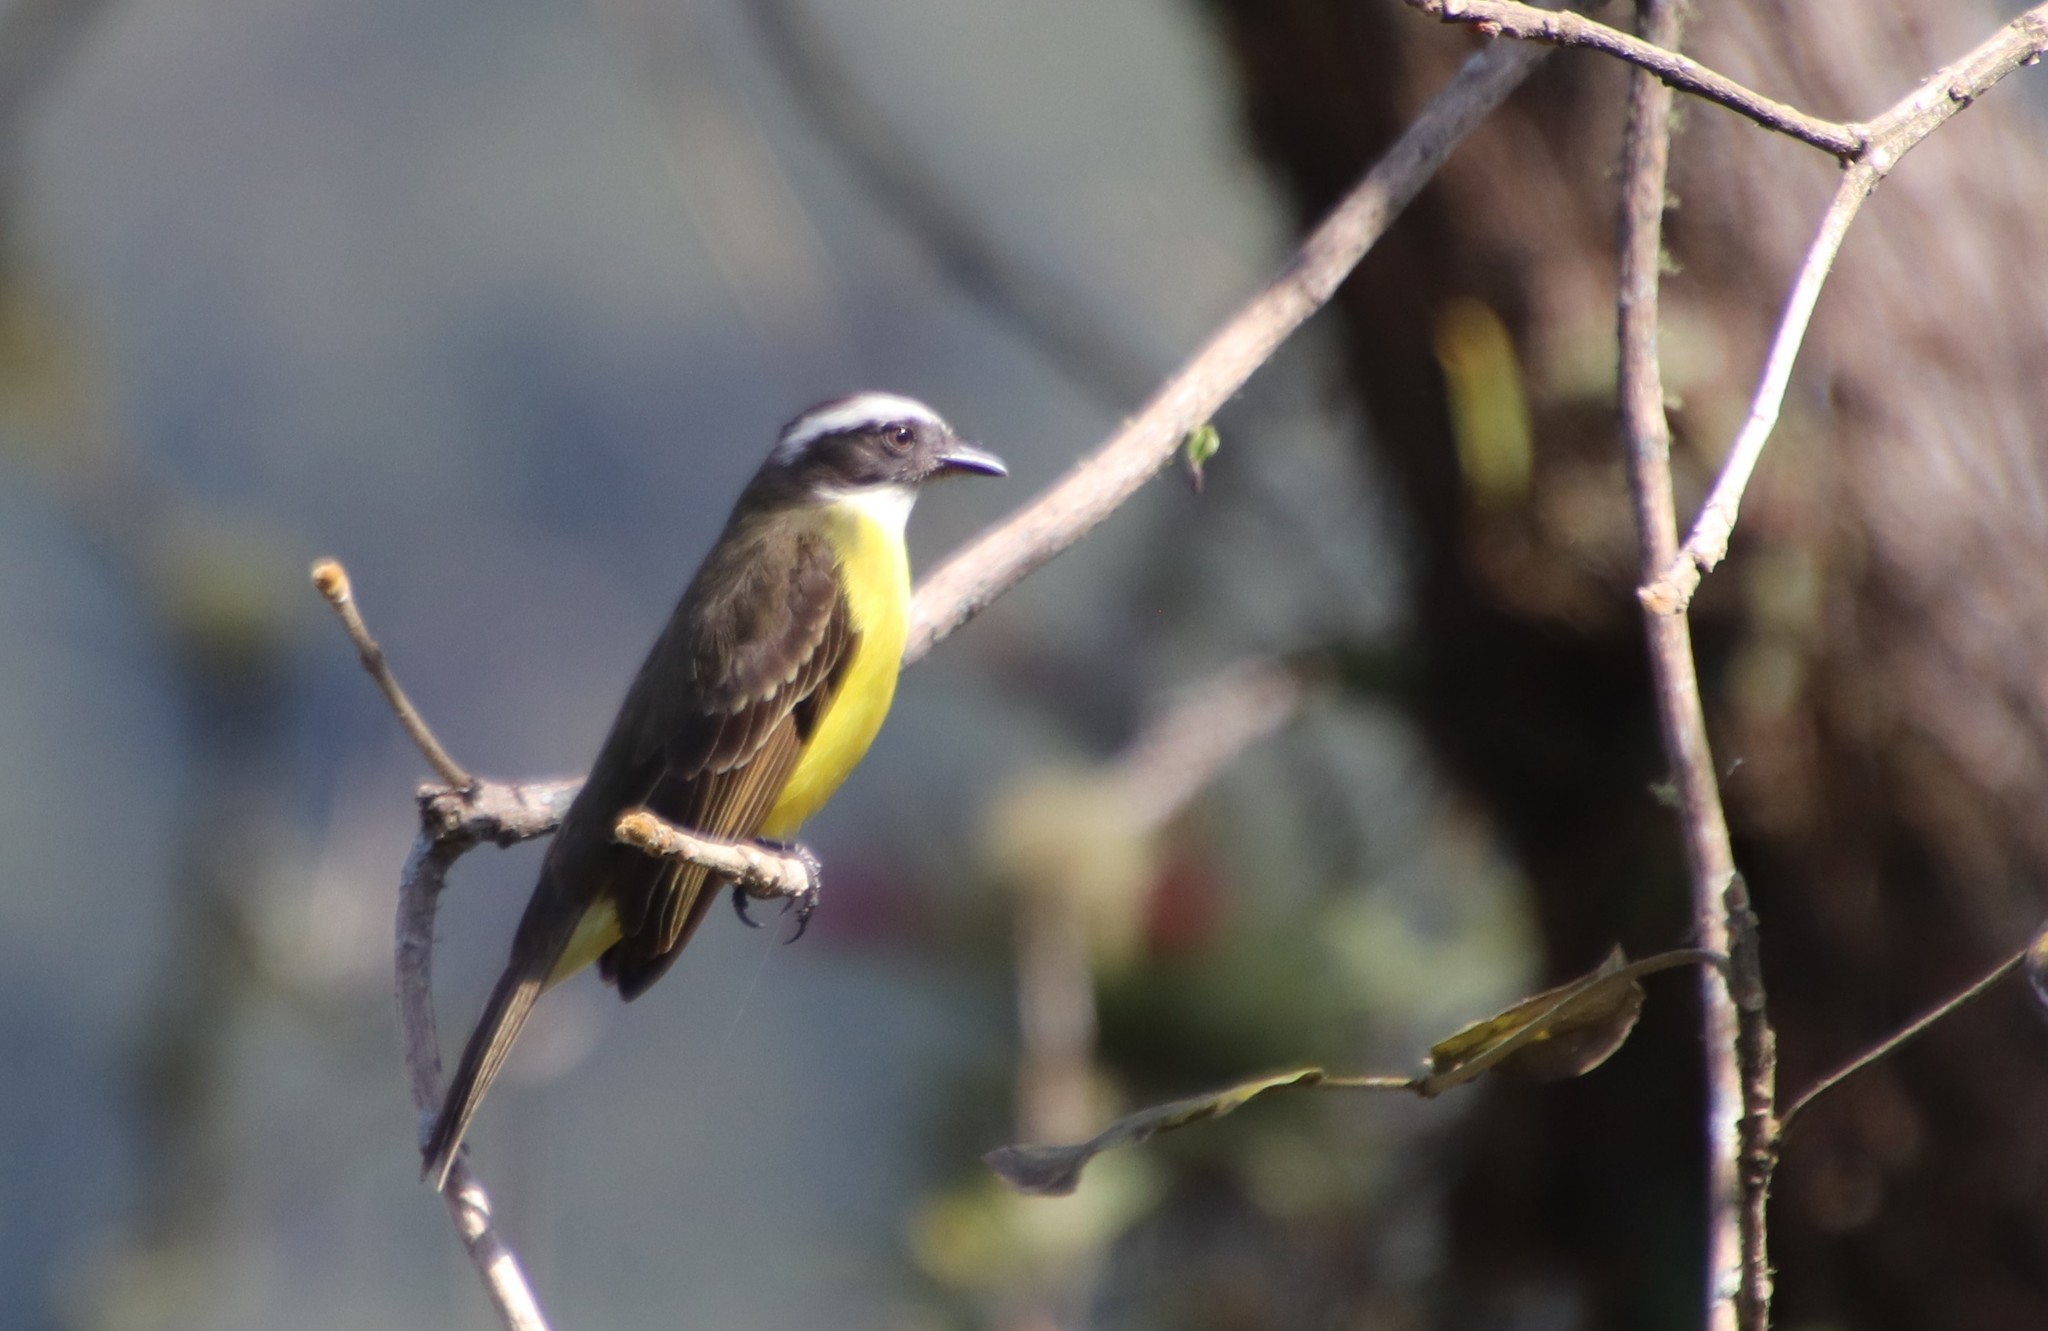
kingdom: Animalia
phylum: Chordata
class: Aves
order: Passeriformes
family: Tyrannidae
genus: Myiozetetes
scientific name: Myiozetetes similis
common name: Social flycatcher
